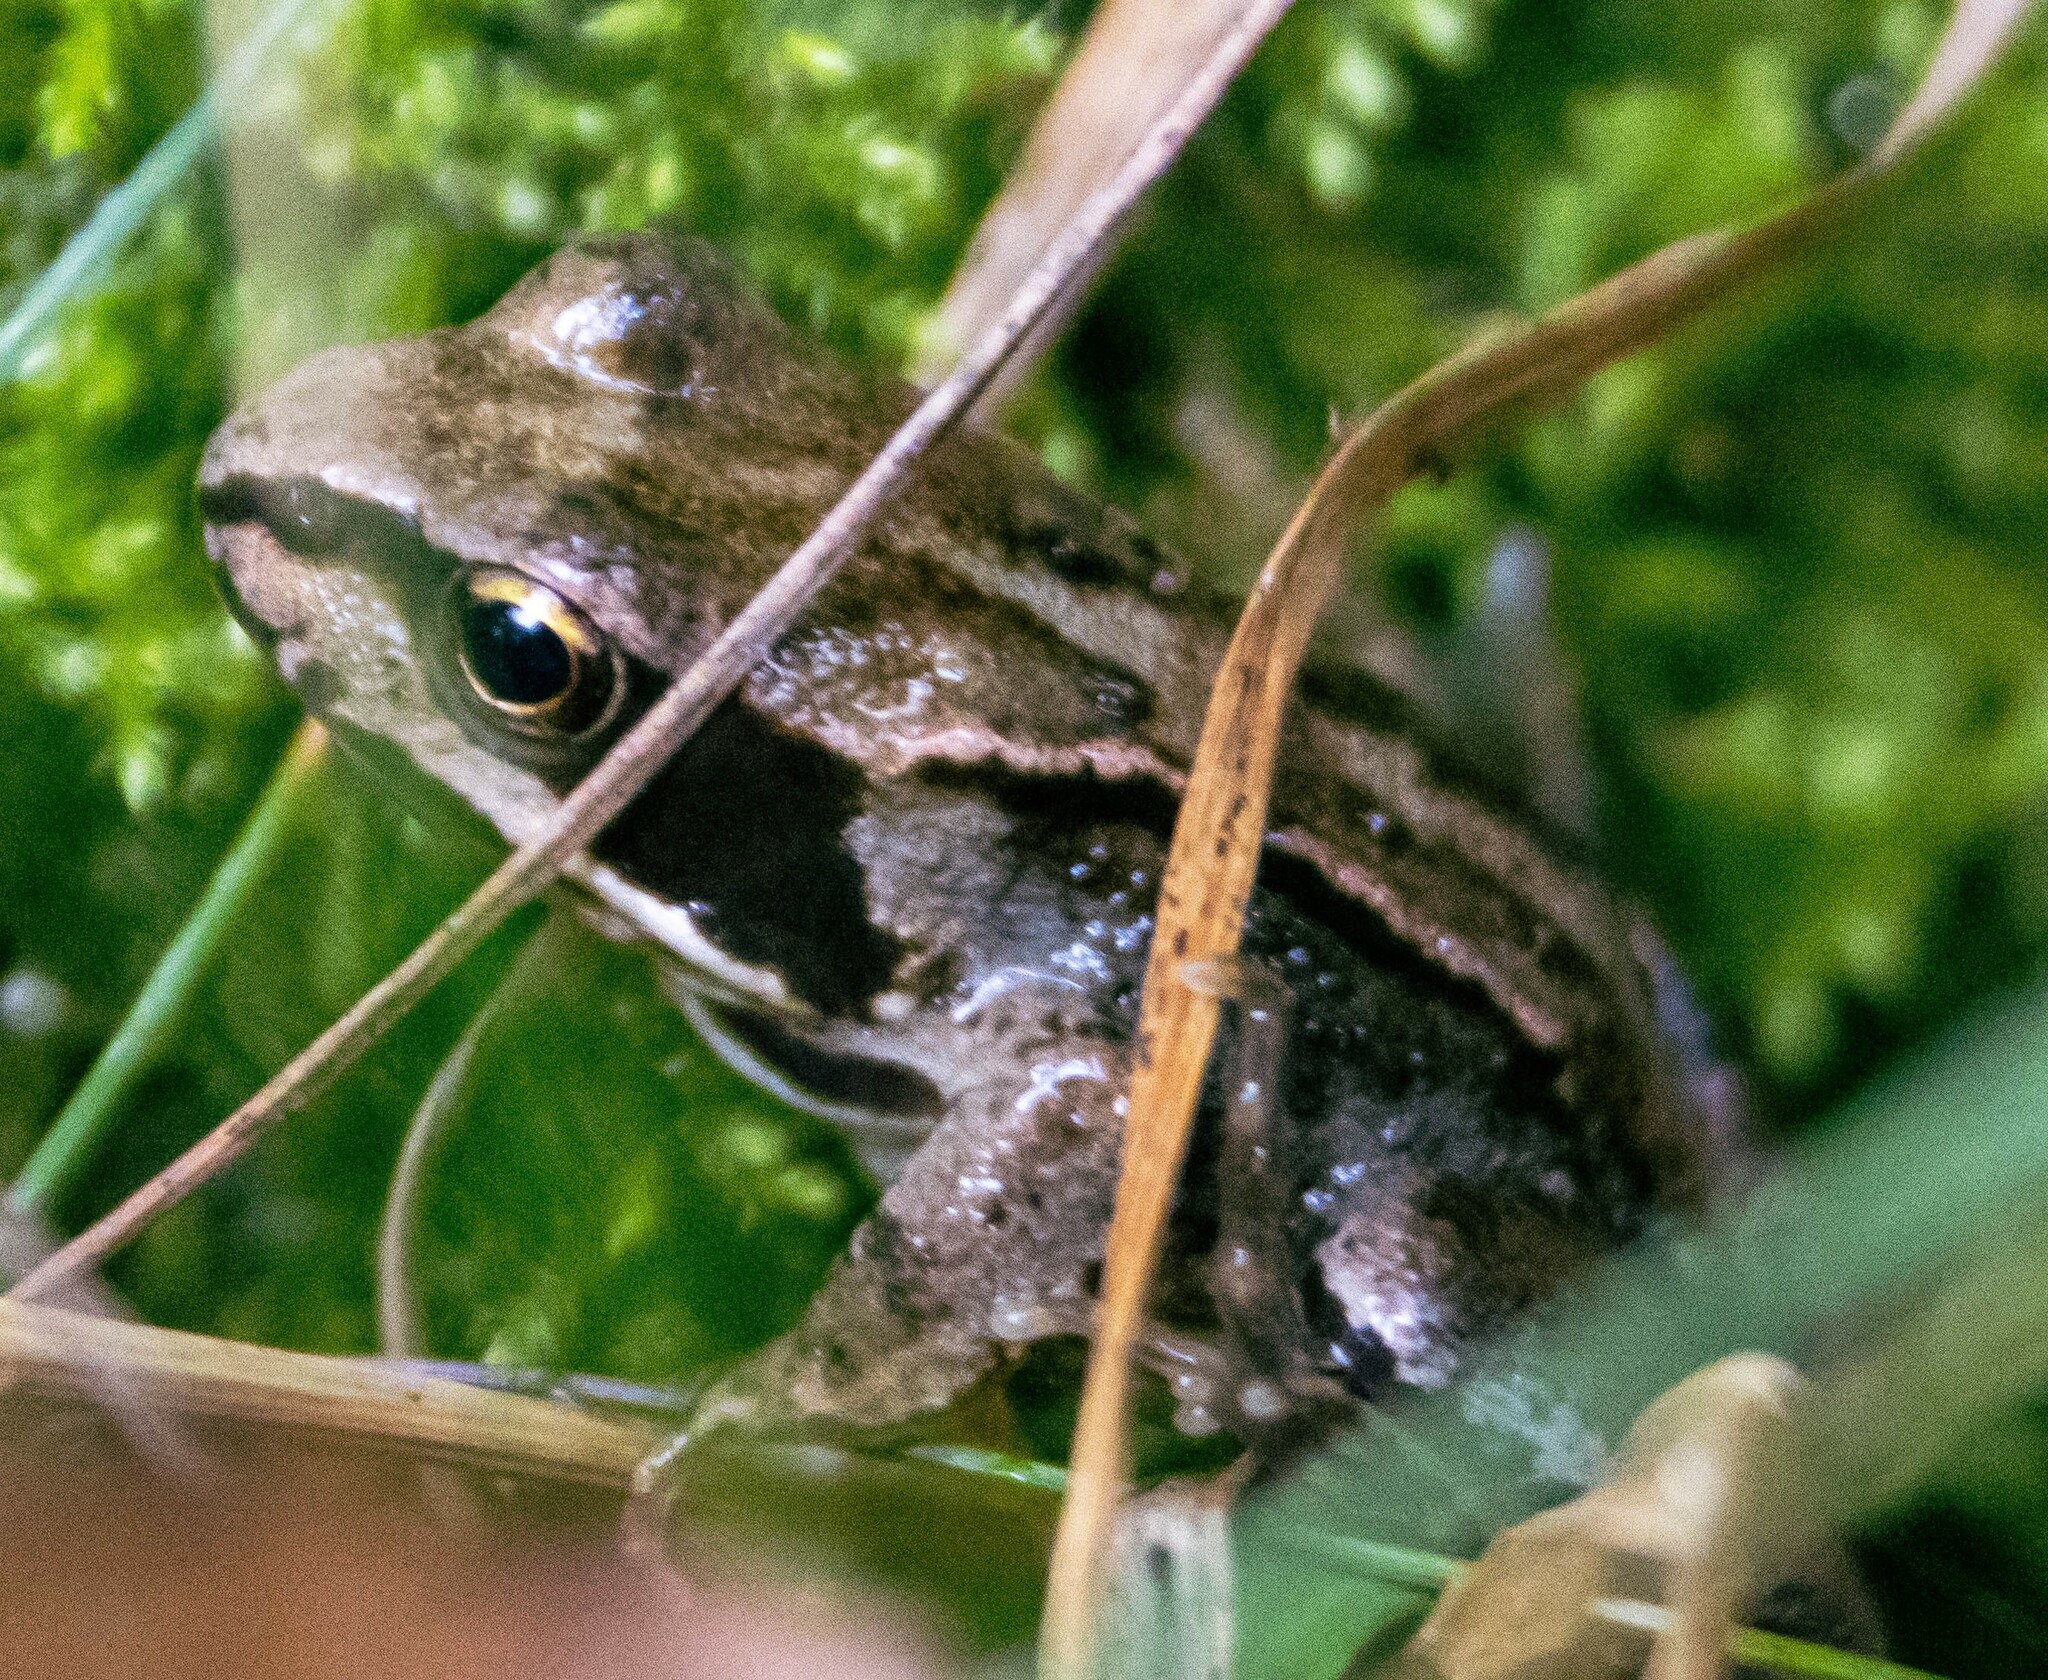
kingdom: Animalia
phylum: Chordata
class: Amphibia
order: Anura
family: Ranidae
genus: Rana
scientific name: Rana temporaria
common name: Common frog
